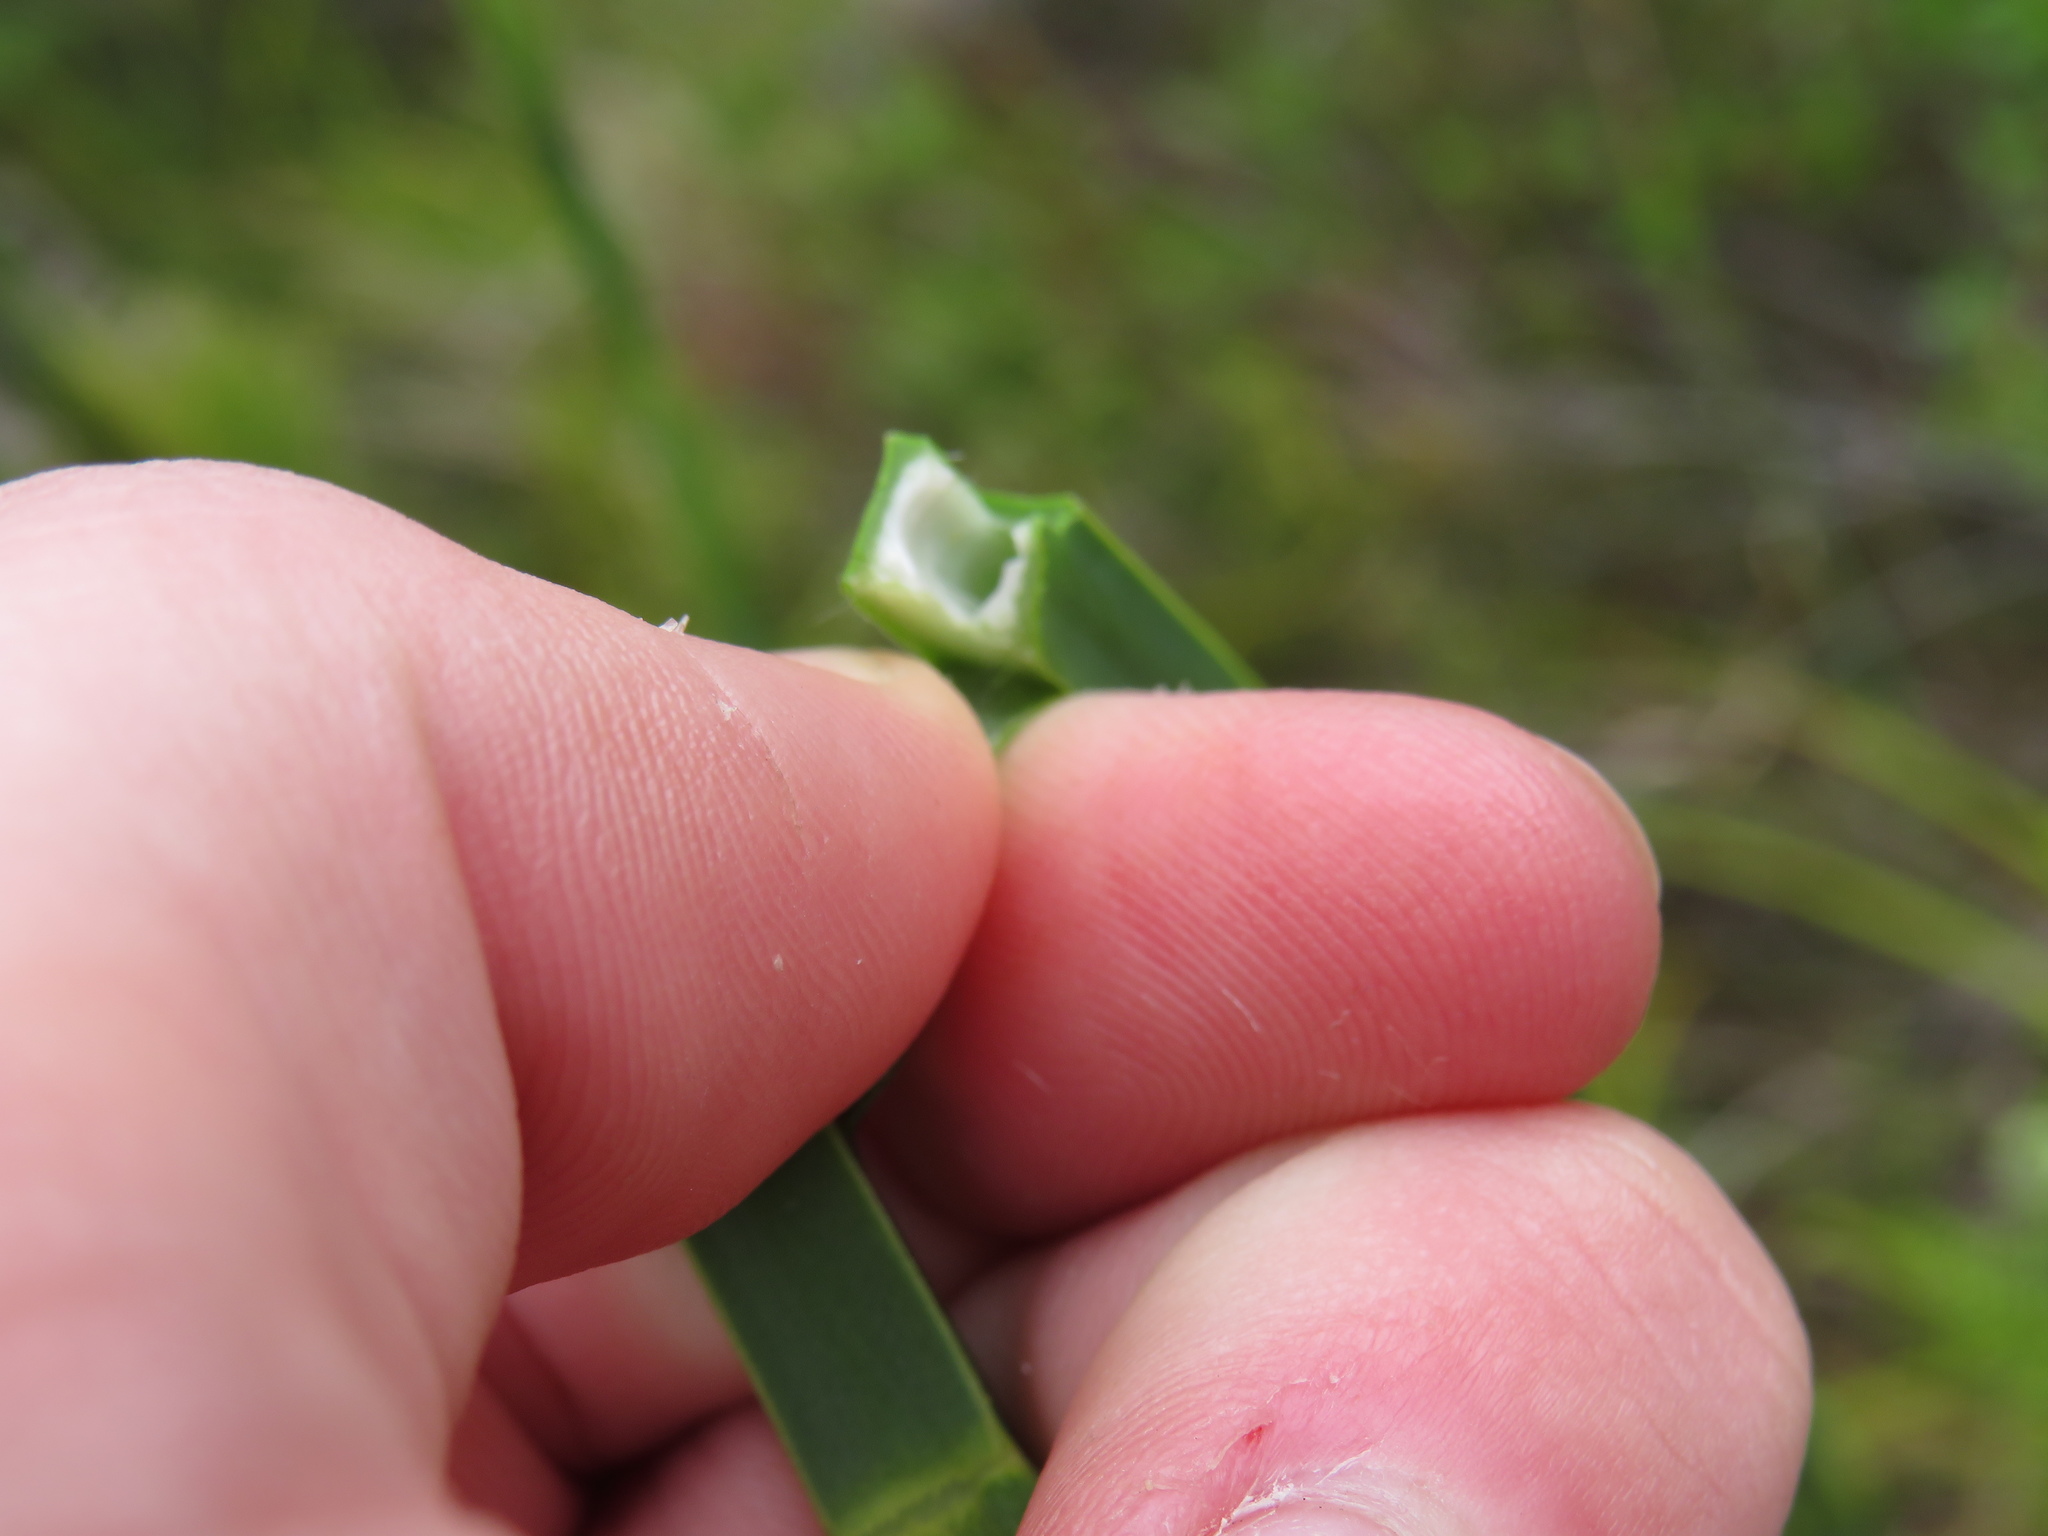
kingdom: Plantae
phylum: Tracheophyta
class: Liliopsida
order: Poales
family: Restionaceae
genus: Restio
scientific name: Restio tetragonus
